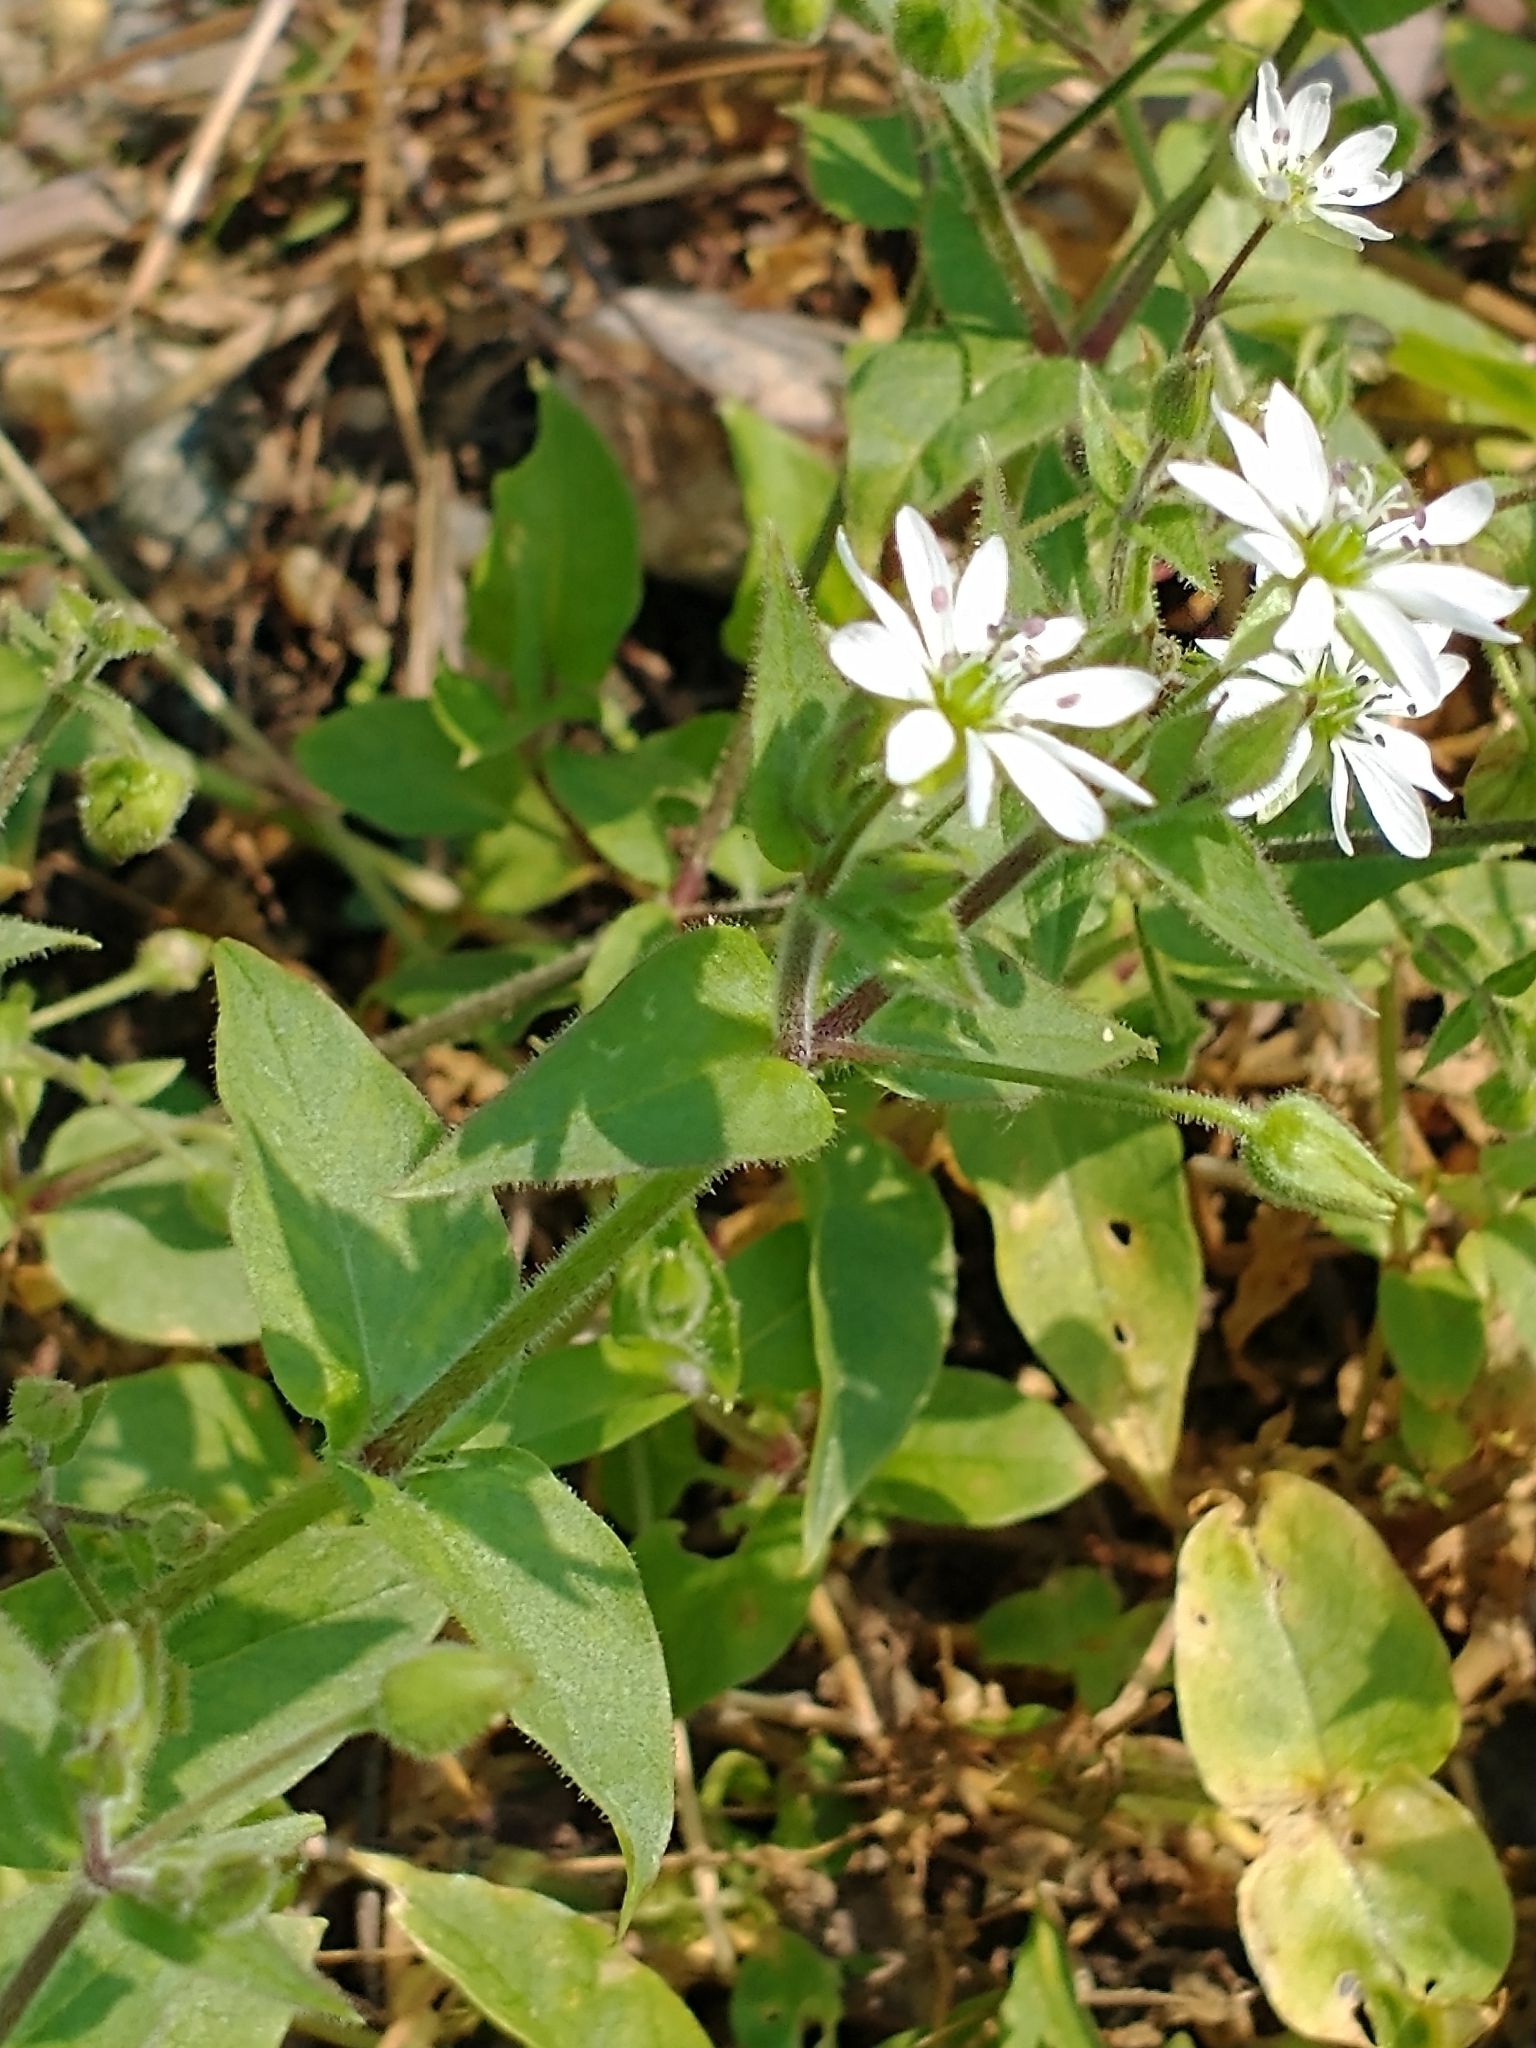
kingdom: Plantae
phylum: Tracheophyta
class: Magnoliopsida
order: Caryophyllales
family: Caryophyllaceae
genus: Stellaria
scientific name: Stellaria aquatica
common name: Water chickweed
